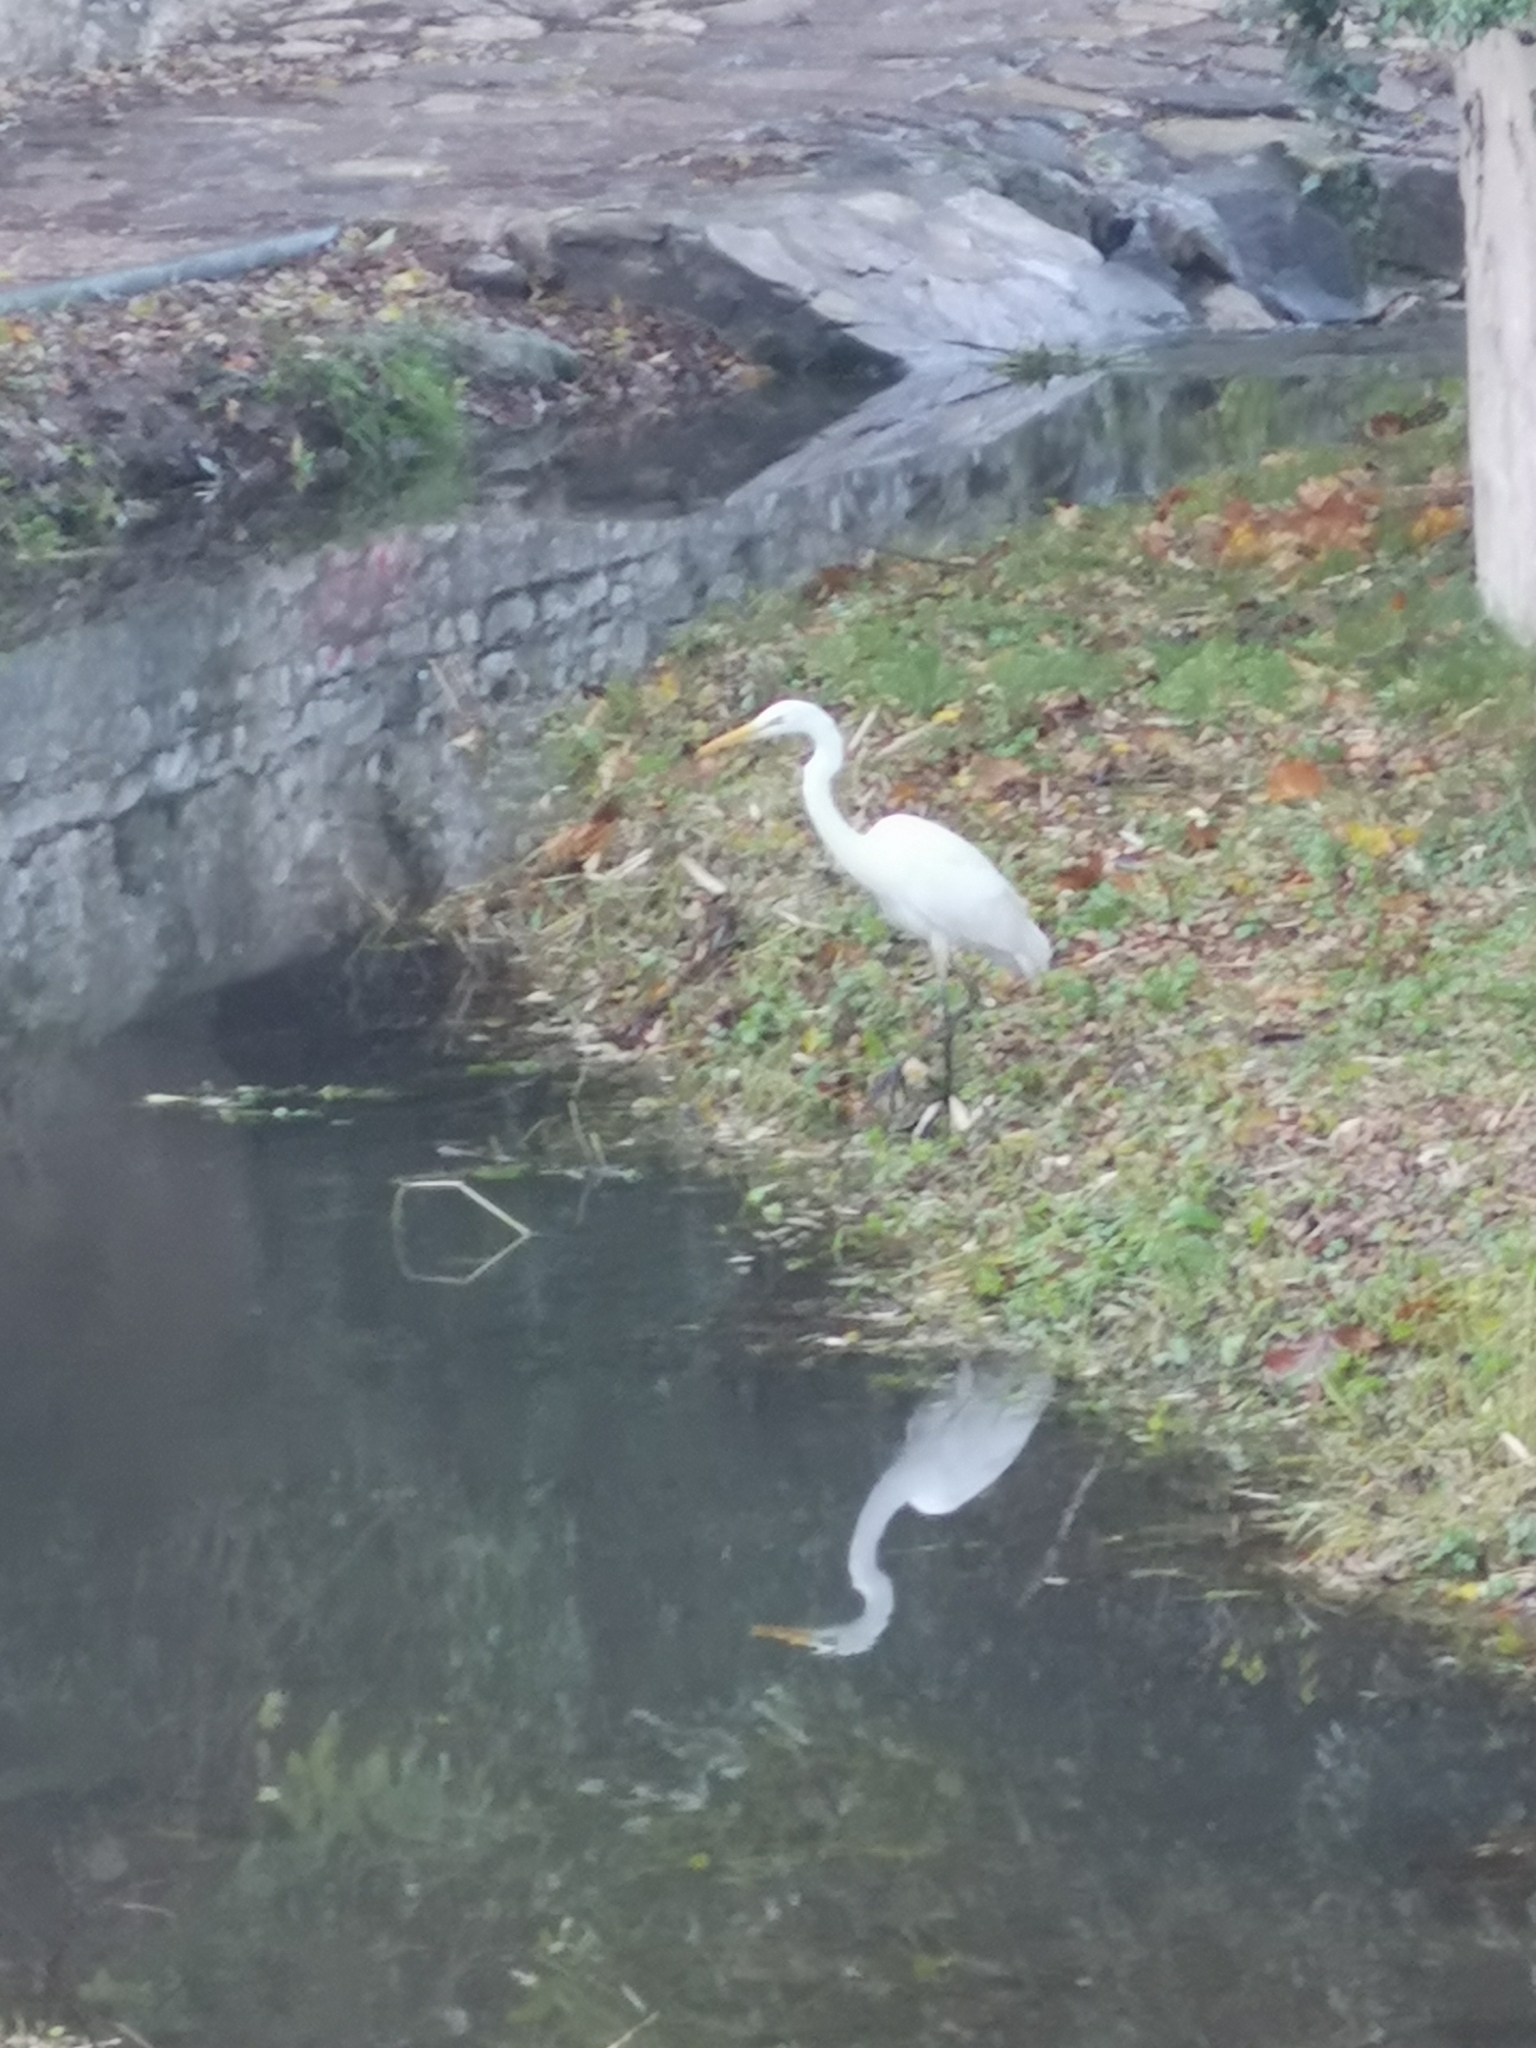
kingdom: Animalia
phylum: Chordata
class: Aves
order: Pelecaniformes
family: Ardeidae
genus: Ardea
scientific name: Ardea alba
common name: Great egret
